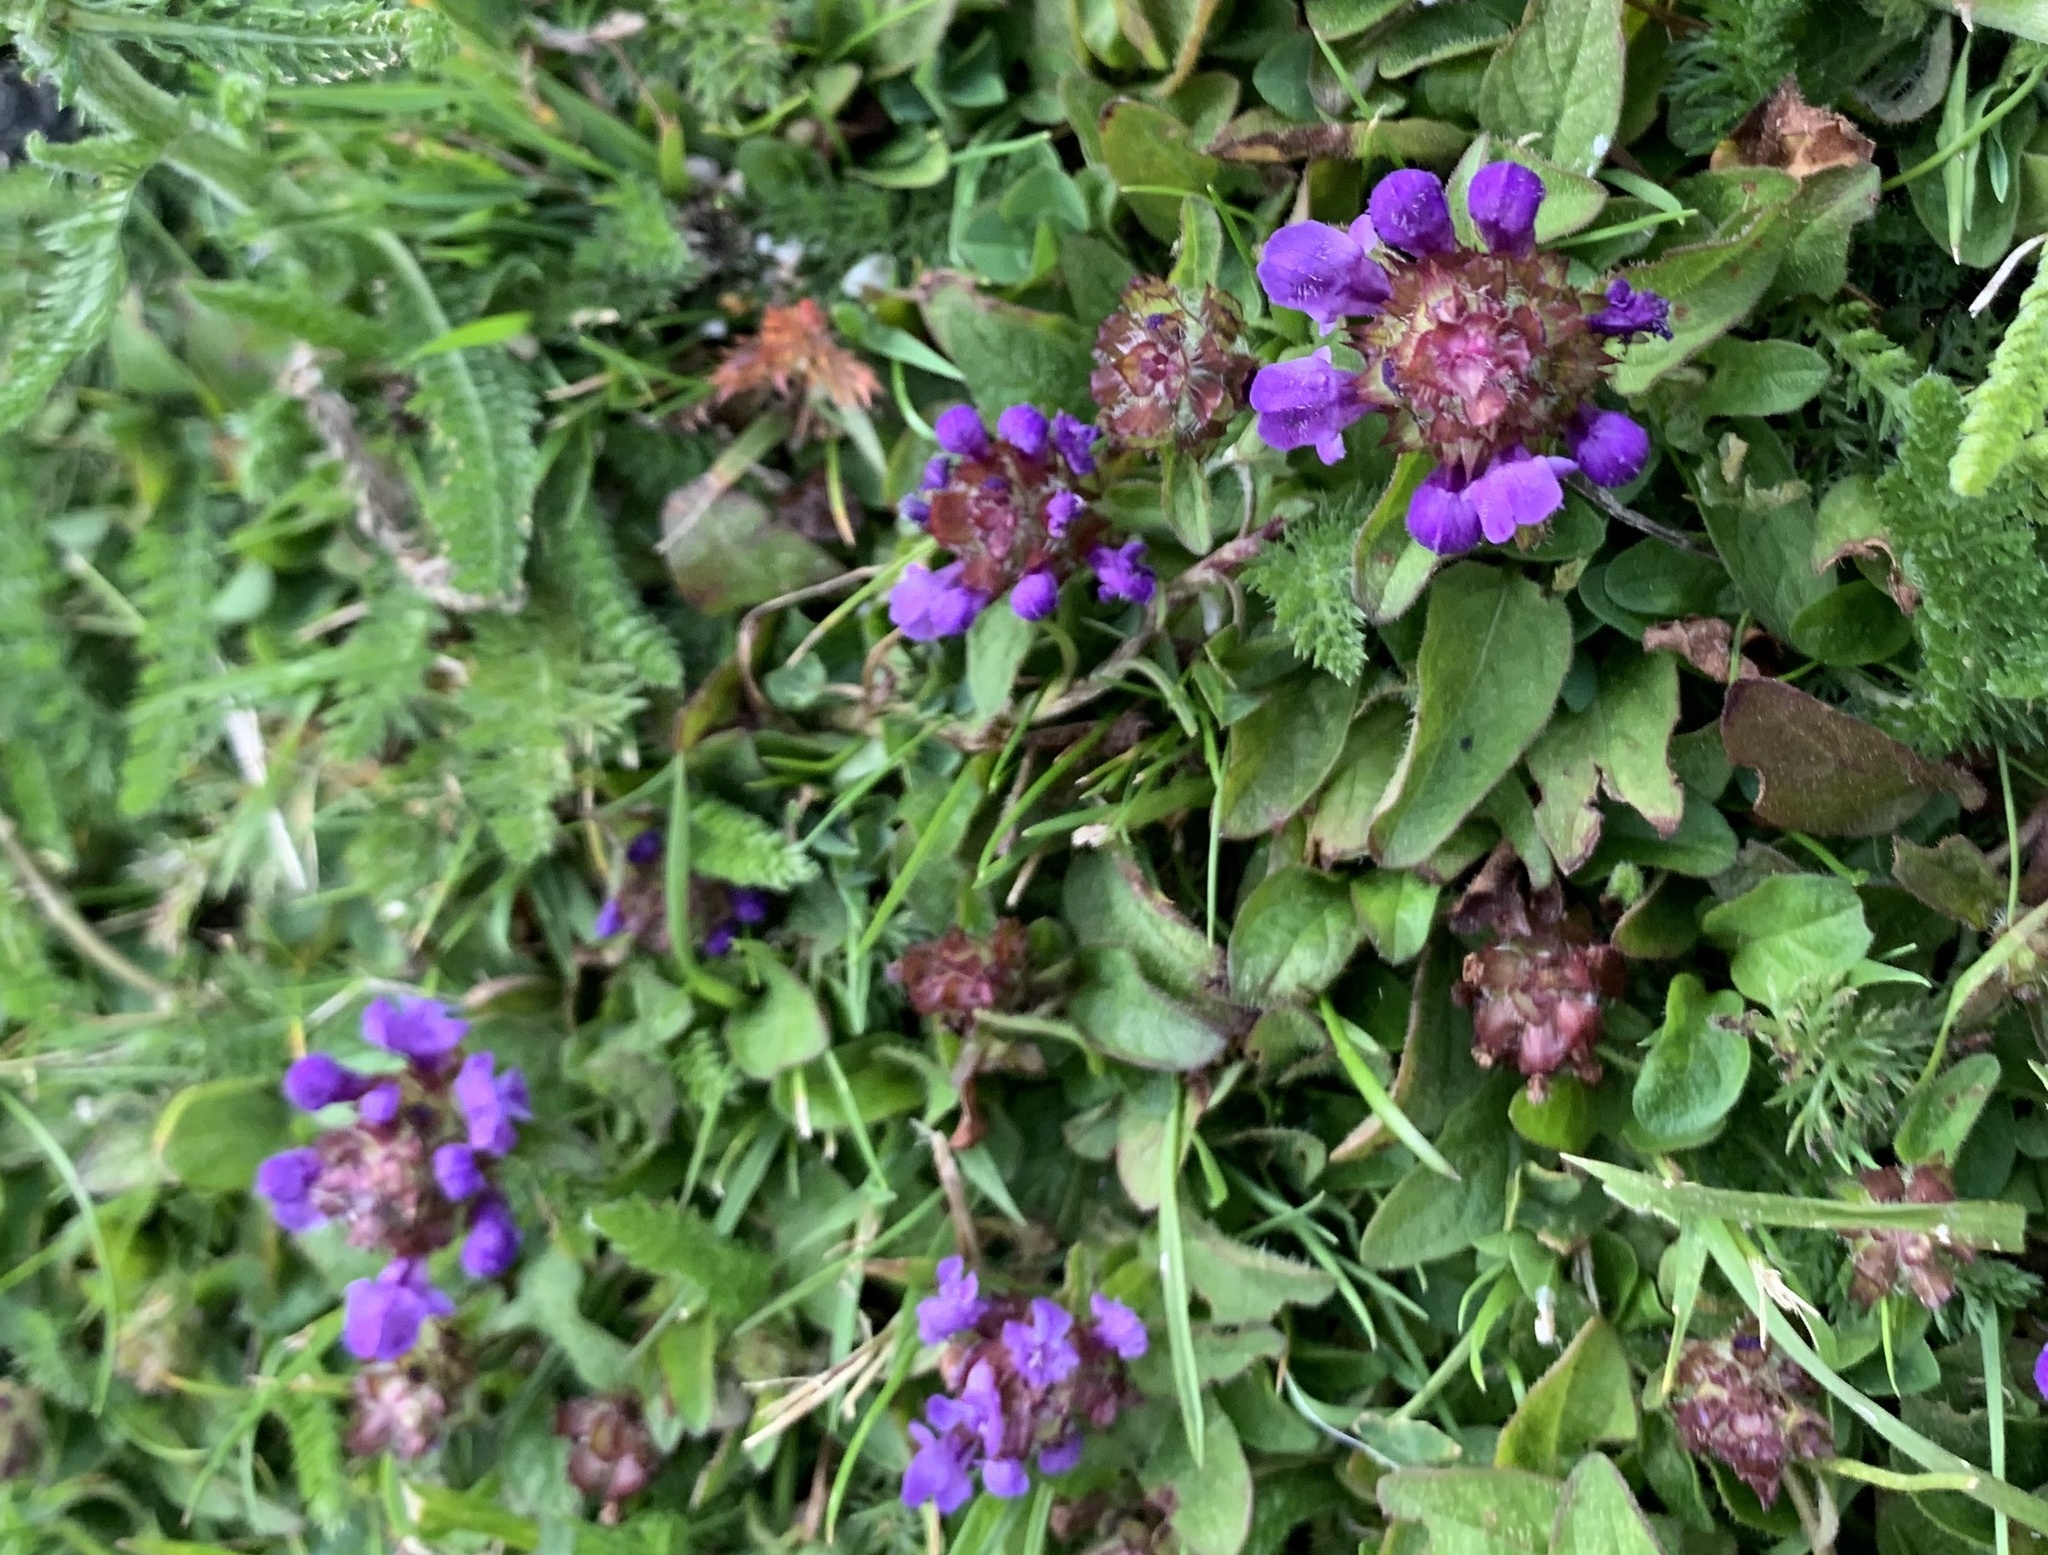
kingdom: Plantae
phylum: Tracheophyta
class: Magnoliopsida
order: Lamiales
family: Lamiaceae
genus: Prunella
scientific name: Prunella vulgaris
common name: Heal-all
